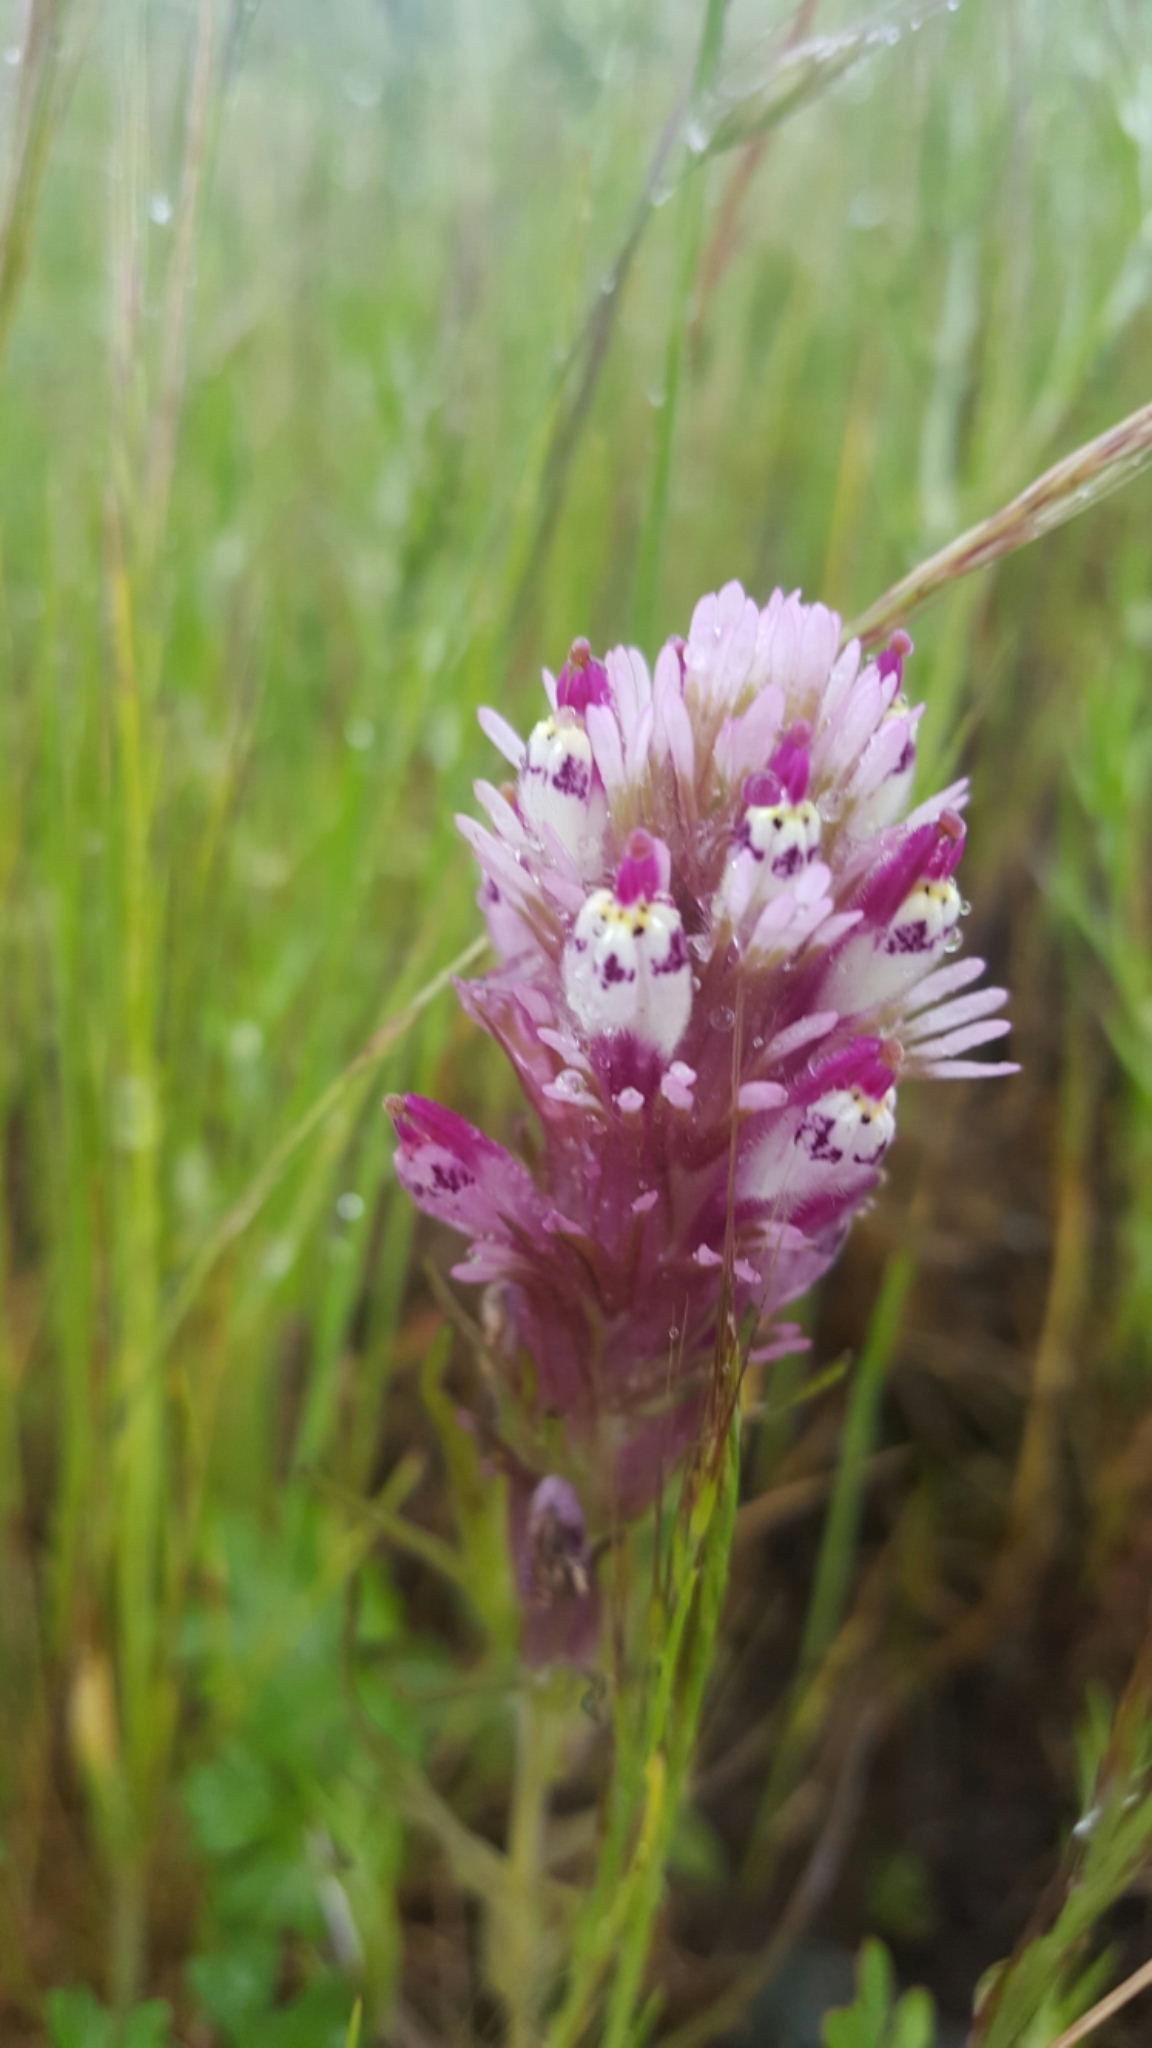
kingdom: Plantae
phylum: Tracheophyta
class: Magnoliopsida
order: Lamiales
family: Orobanchaceae
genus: Castilleja
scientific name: Castilleja densiflora
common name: Dense-flower indian paintbrush
